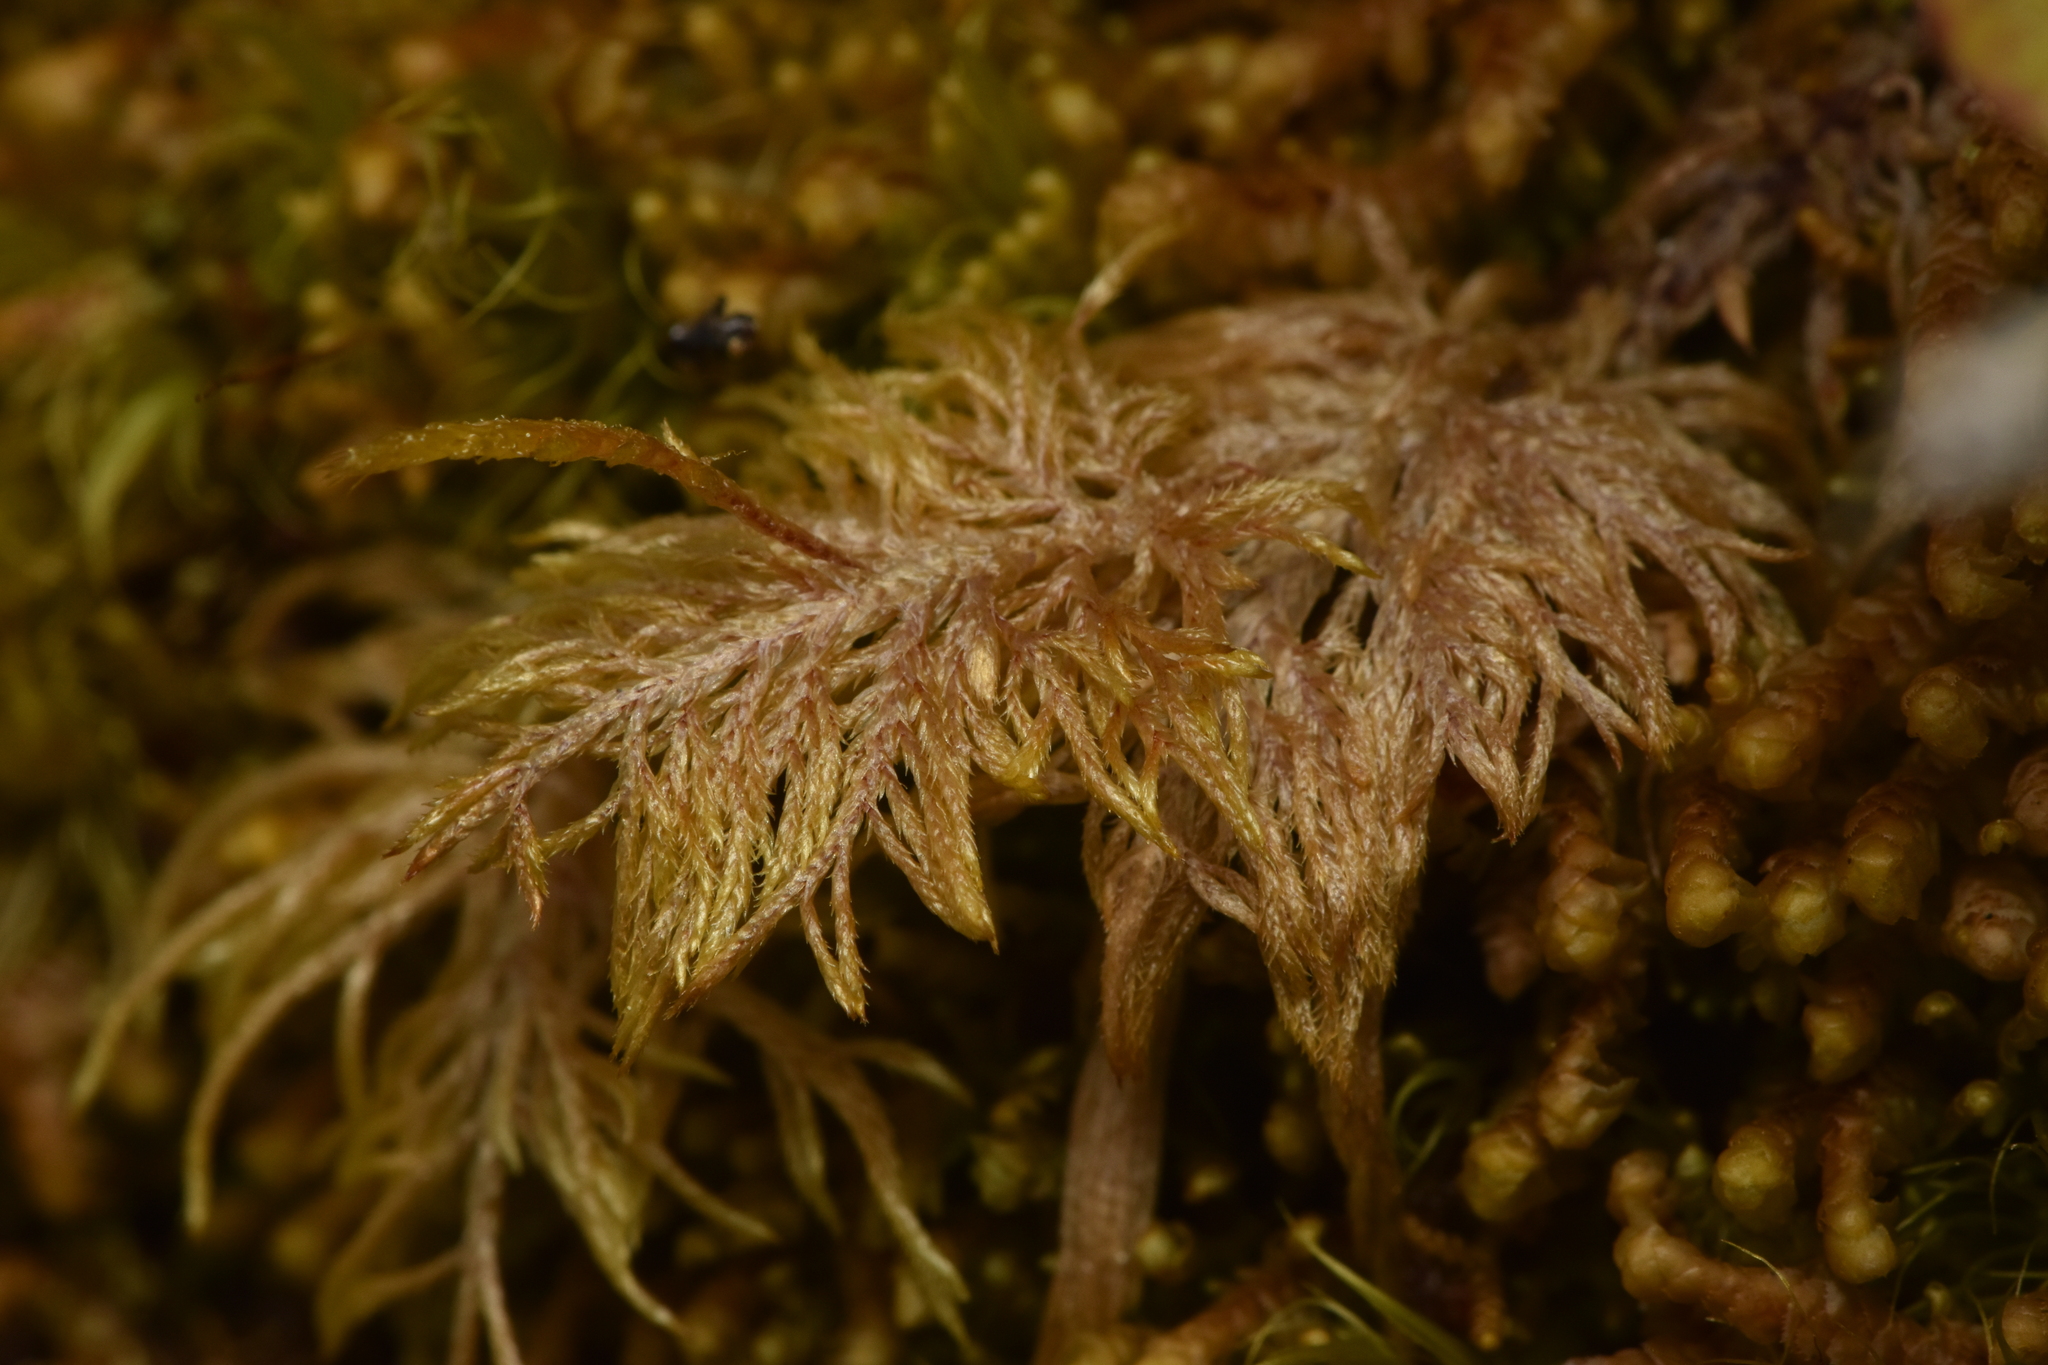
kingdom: Plantae
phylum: Bryophyta
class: Bryopsida
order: Hypnales
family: Hylocomiaceae
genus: Hylocomium
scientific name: Hylocomium splendens
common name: Stairstep moss
